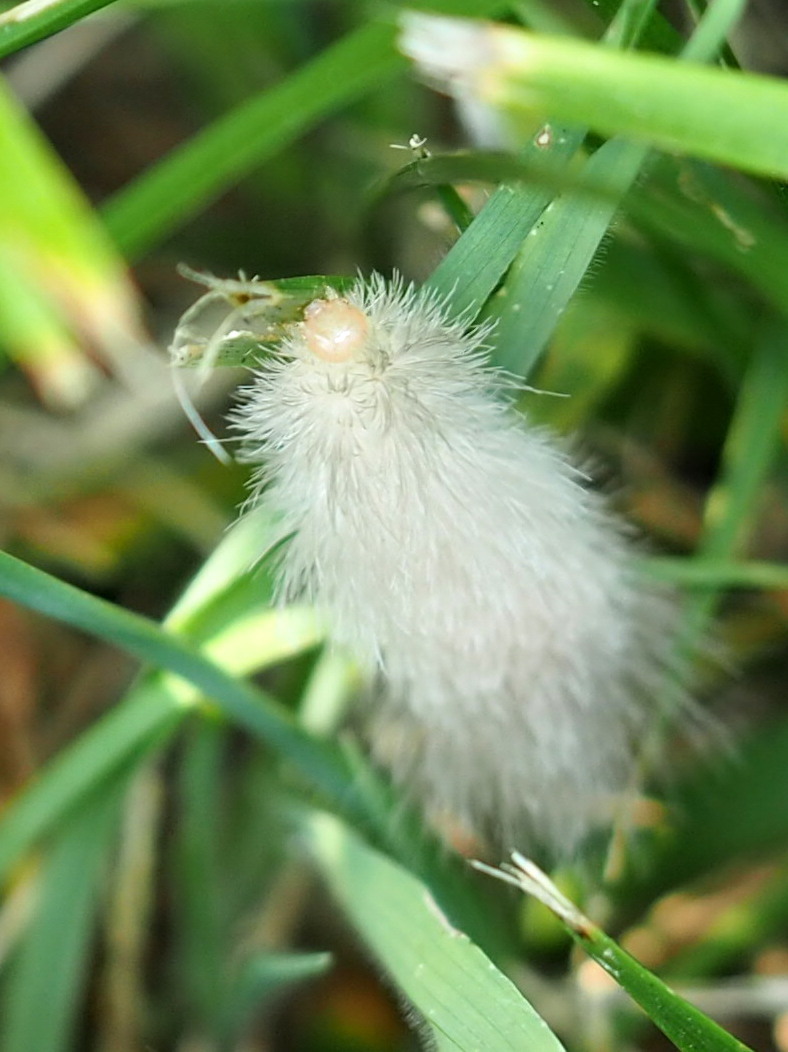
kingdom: Animalia
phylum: Arthropoda
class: Insecta
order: Lepidoptera
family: Erebidae
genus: Spilosoma
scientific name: Spilosoma virginica
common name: Virginia tiger moth
